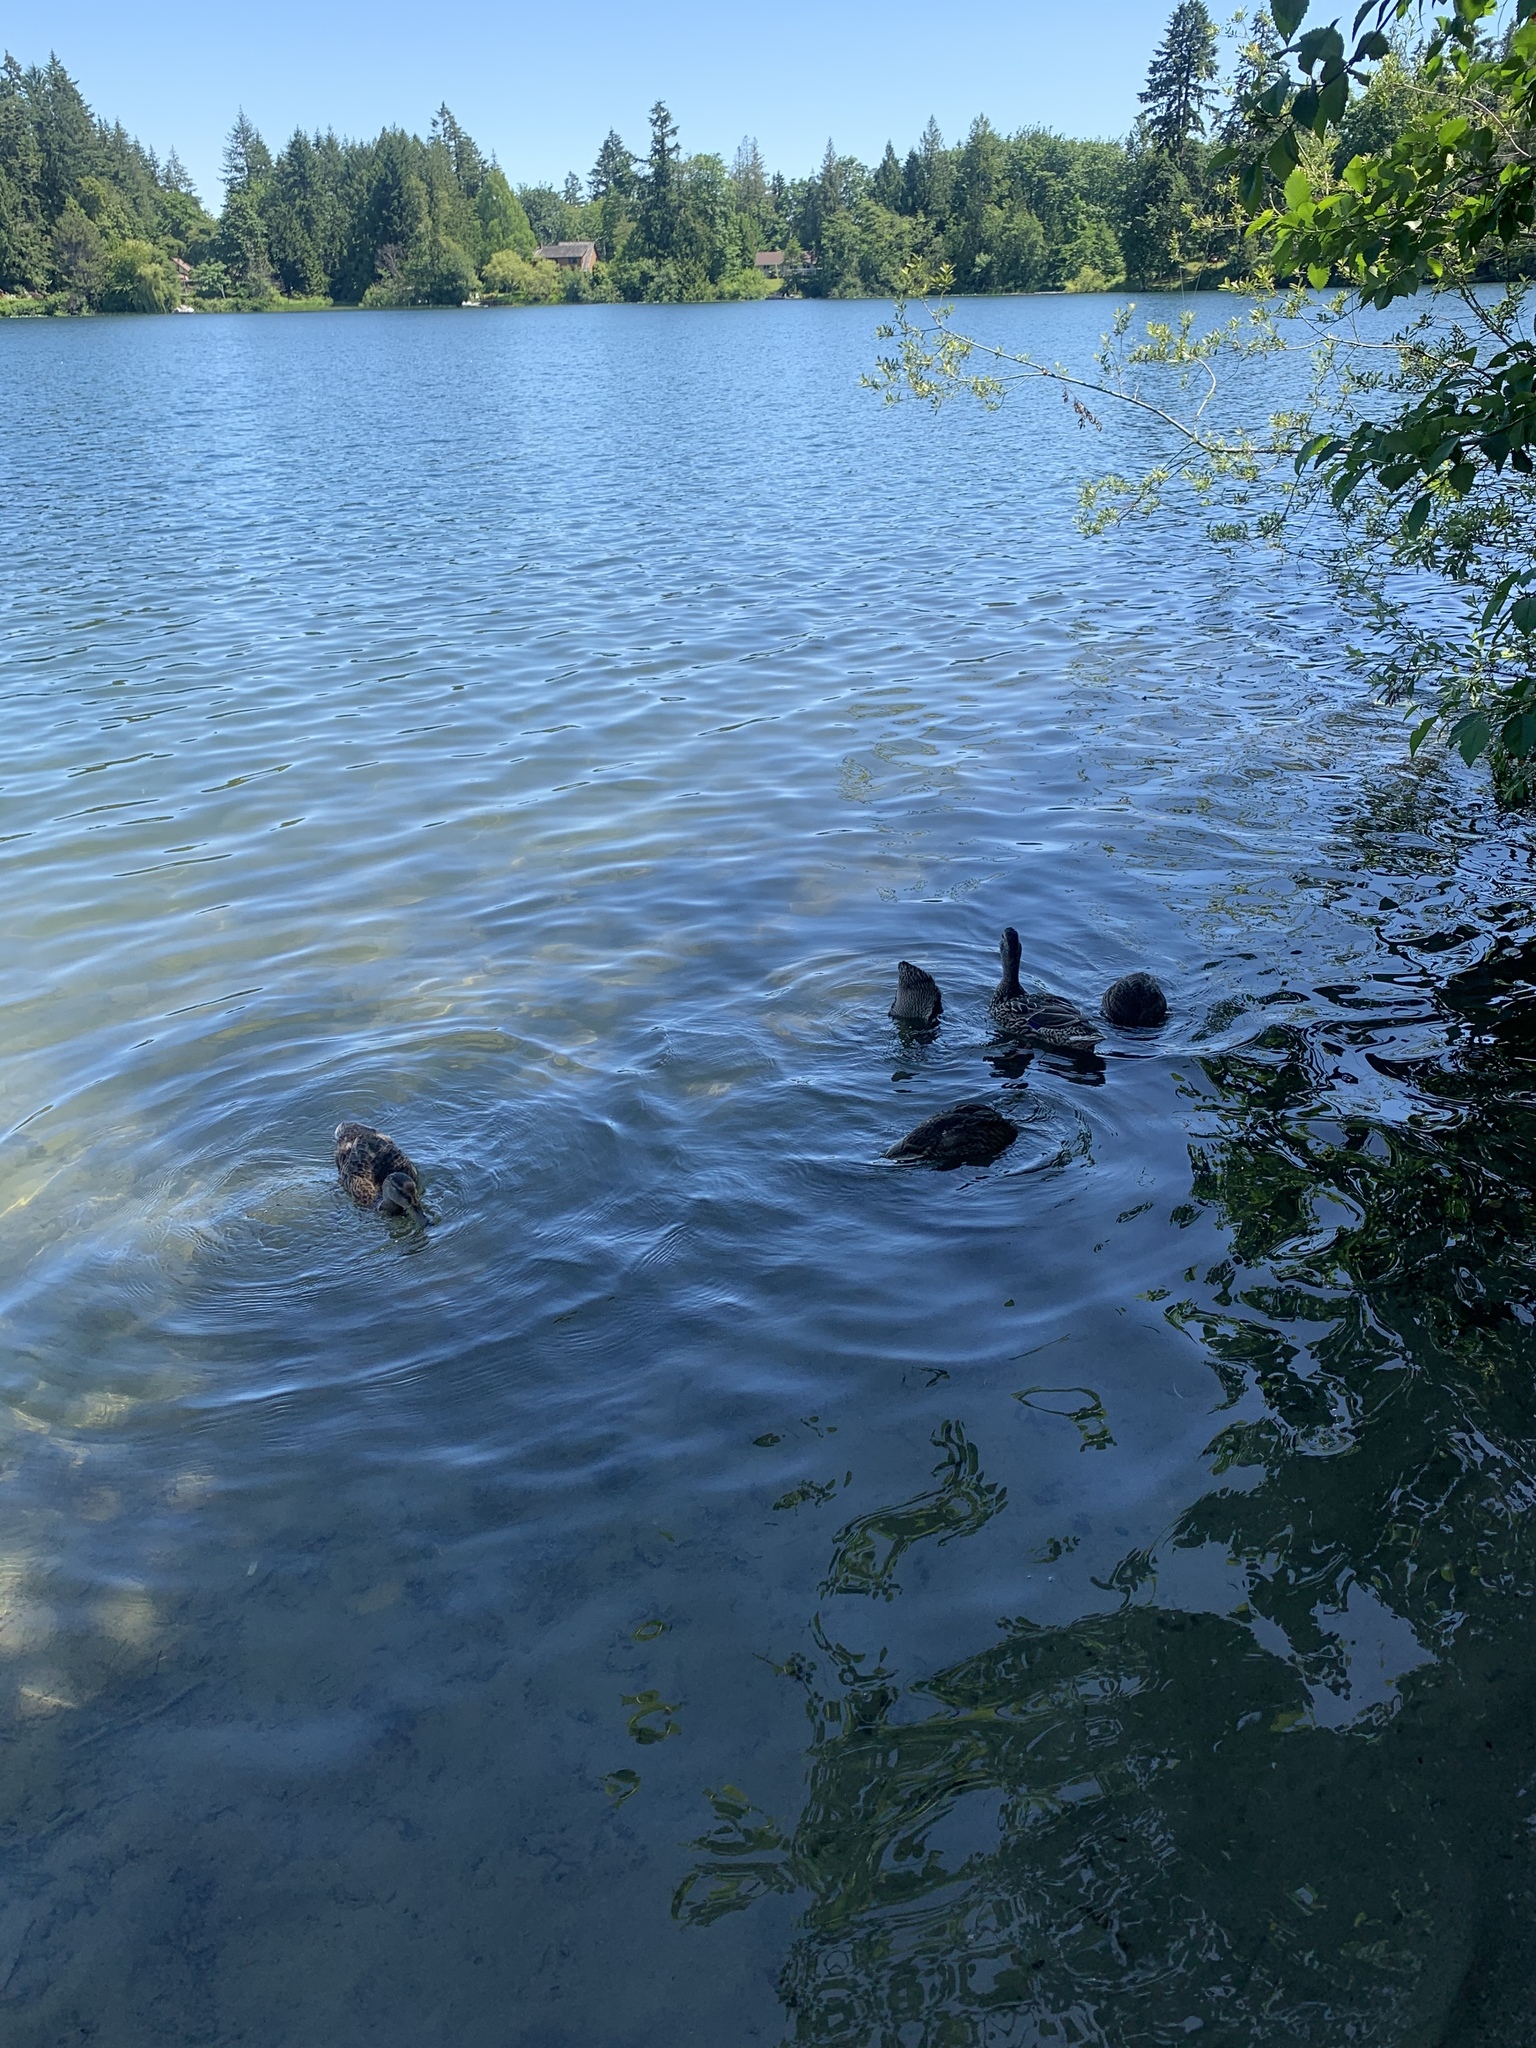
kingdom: Animalia
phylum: Chordata
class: Aves
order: Anseriformes
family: Anatidae
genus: Anas
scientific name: Anas platyrhynchos
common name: Mallard
